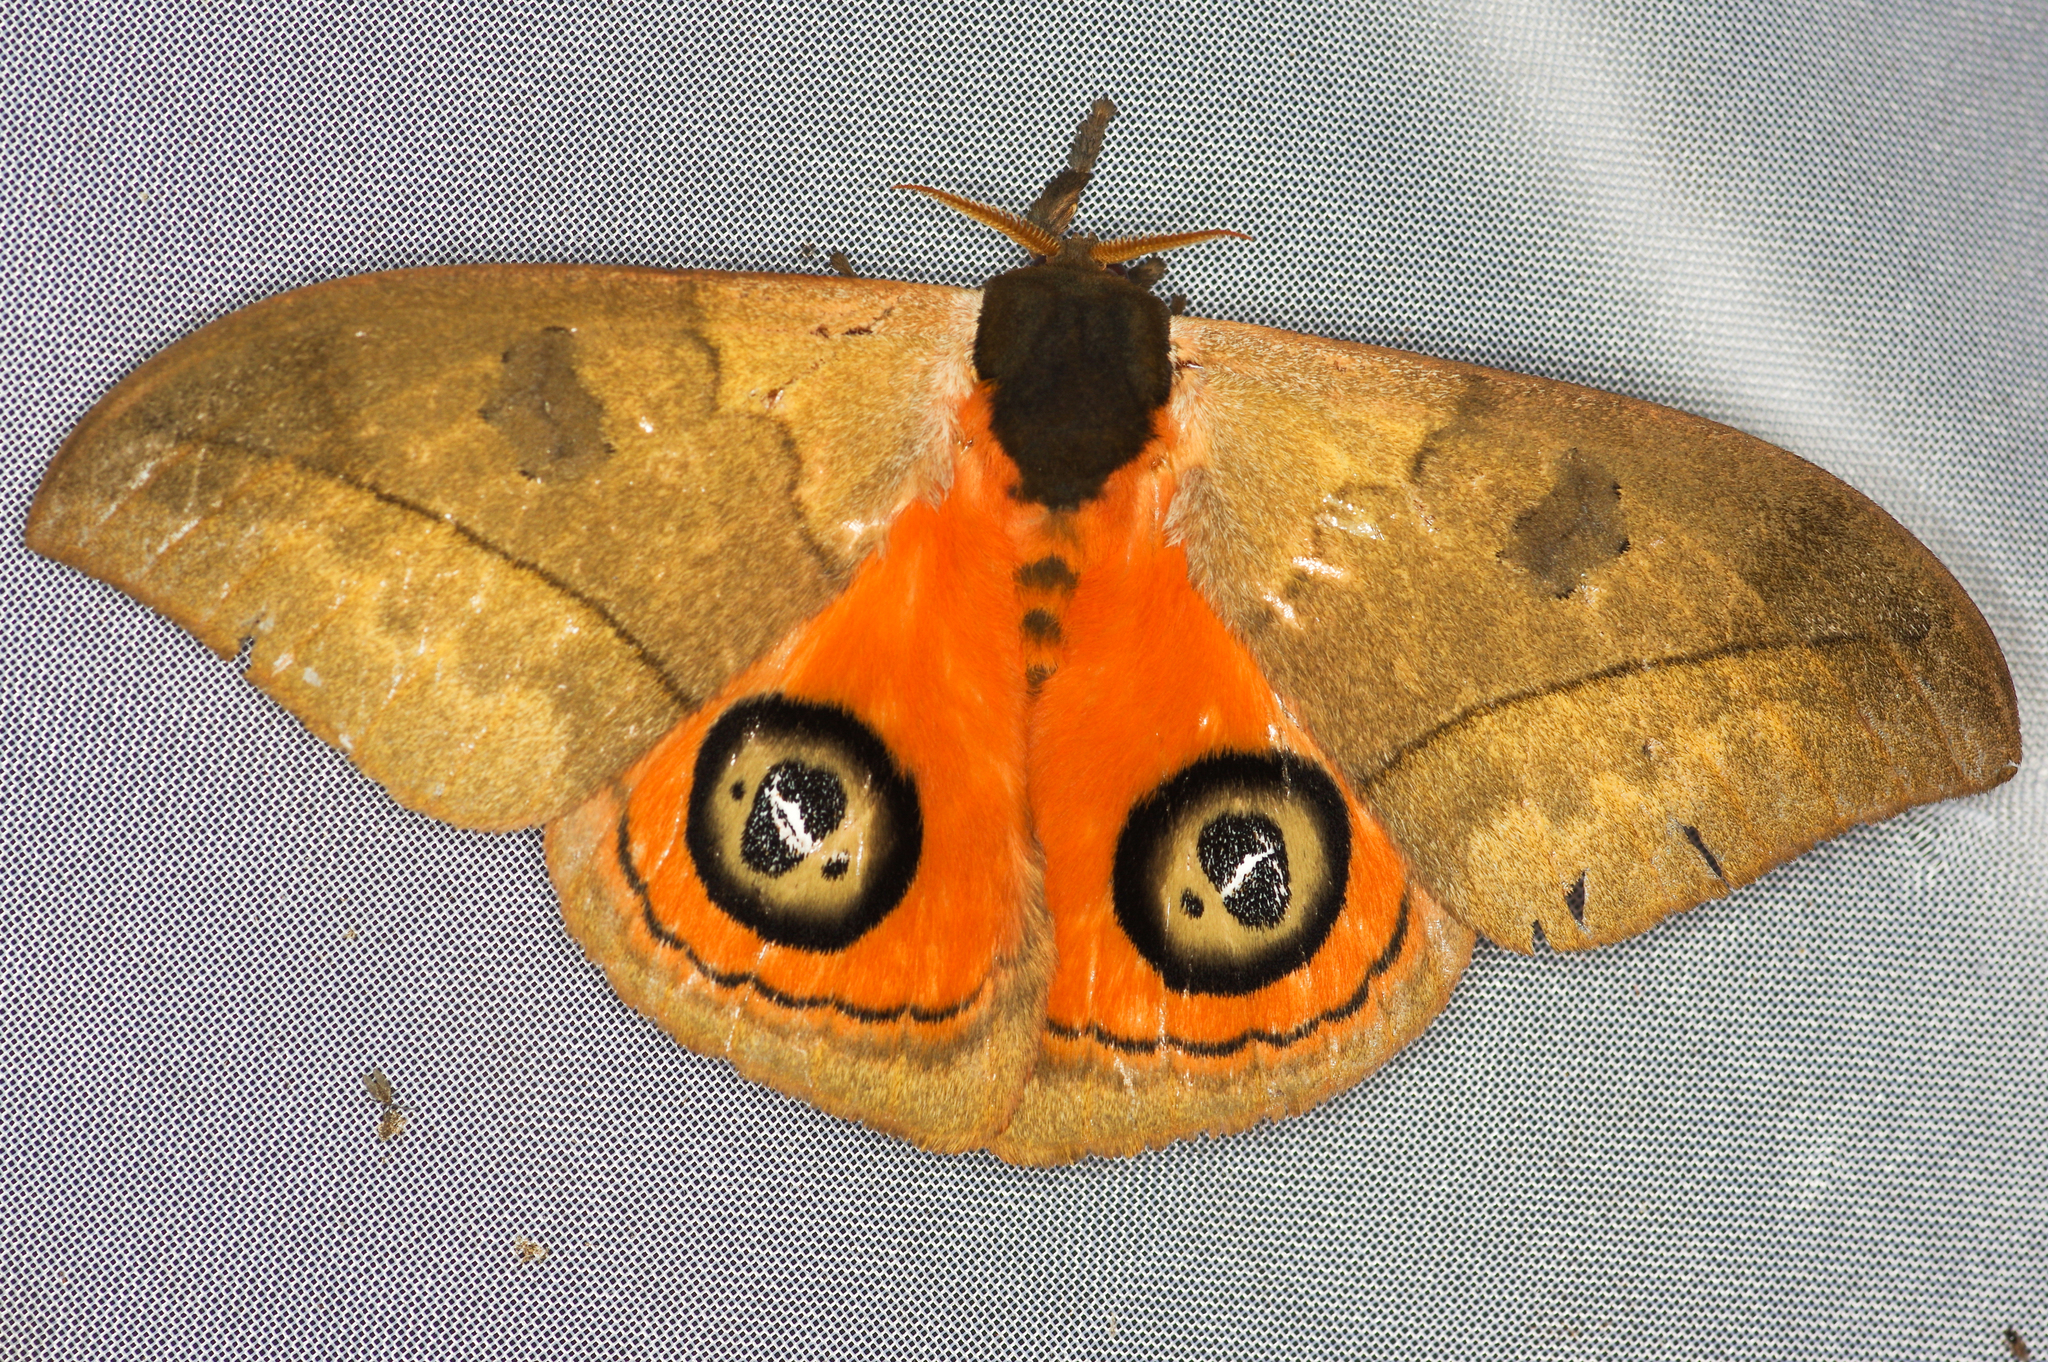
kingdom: Animalia
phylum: Arthropoda
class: Insecta
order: Lepidoptera
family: Saturniidae
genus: Automeris
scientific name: Automeris liberia
